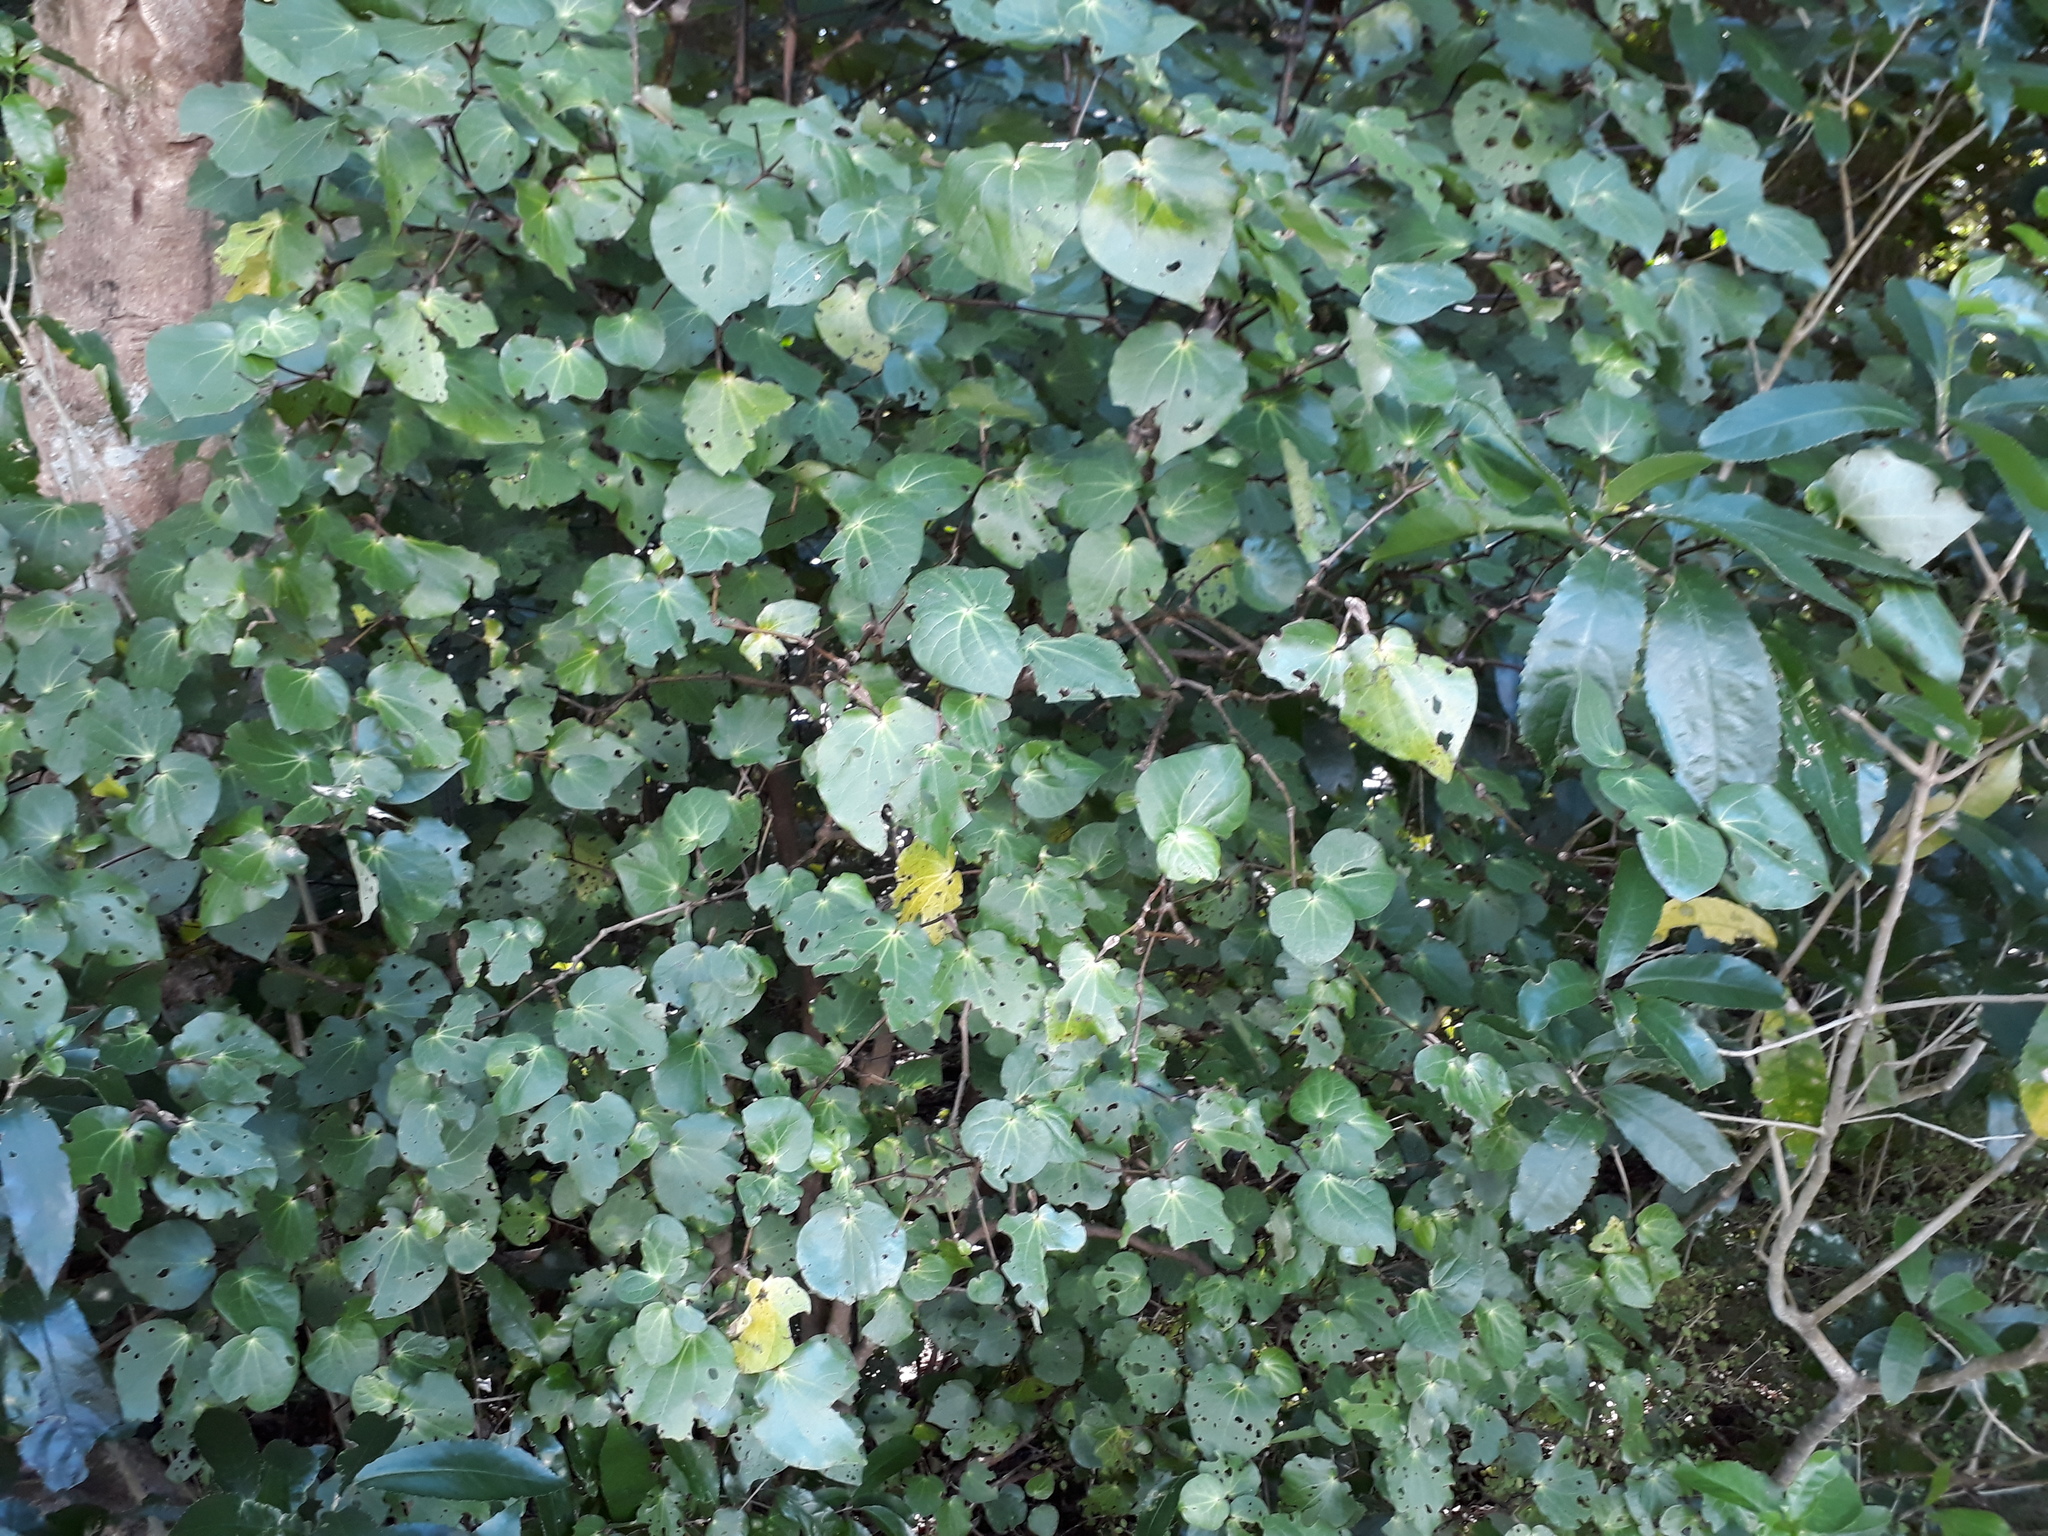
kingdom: Plantae
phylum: Tracheophyta
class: Magnoliopsida
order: Piperales
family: Piperaceae
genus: Macropiper
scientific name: Macropiper excelsum
